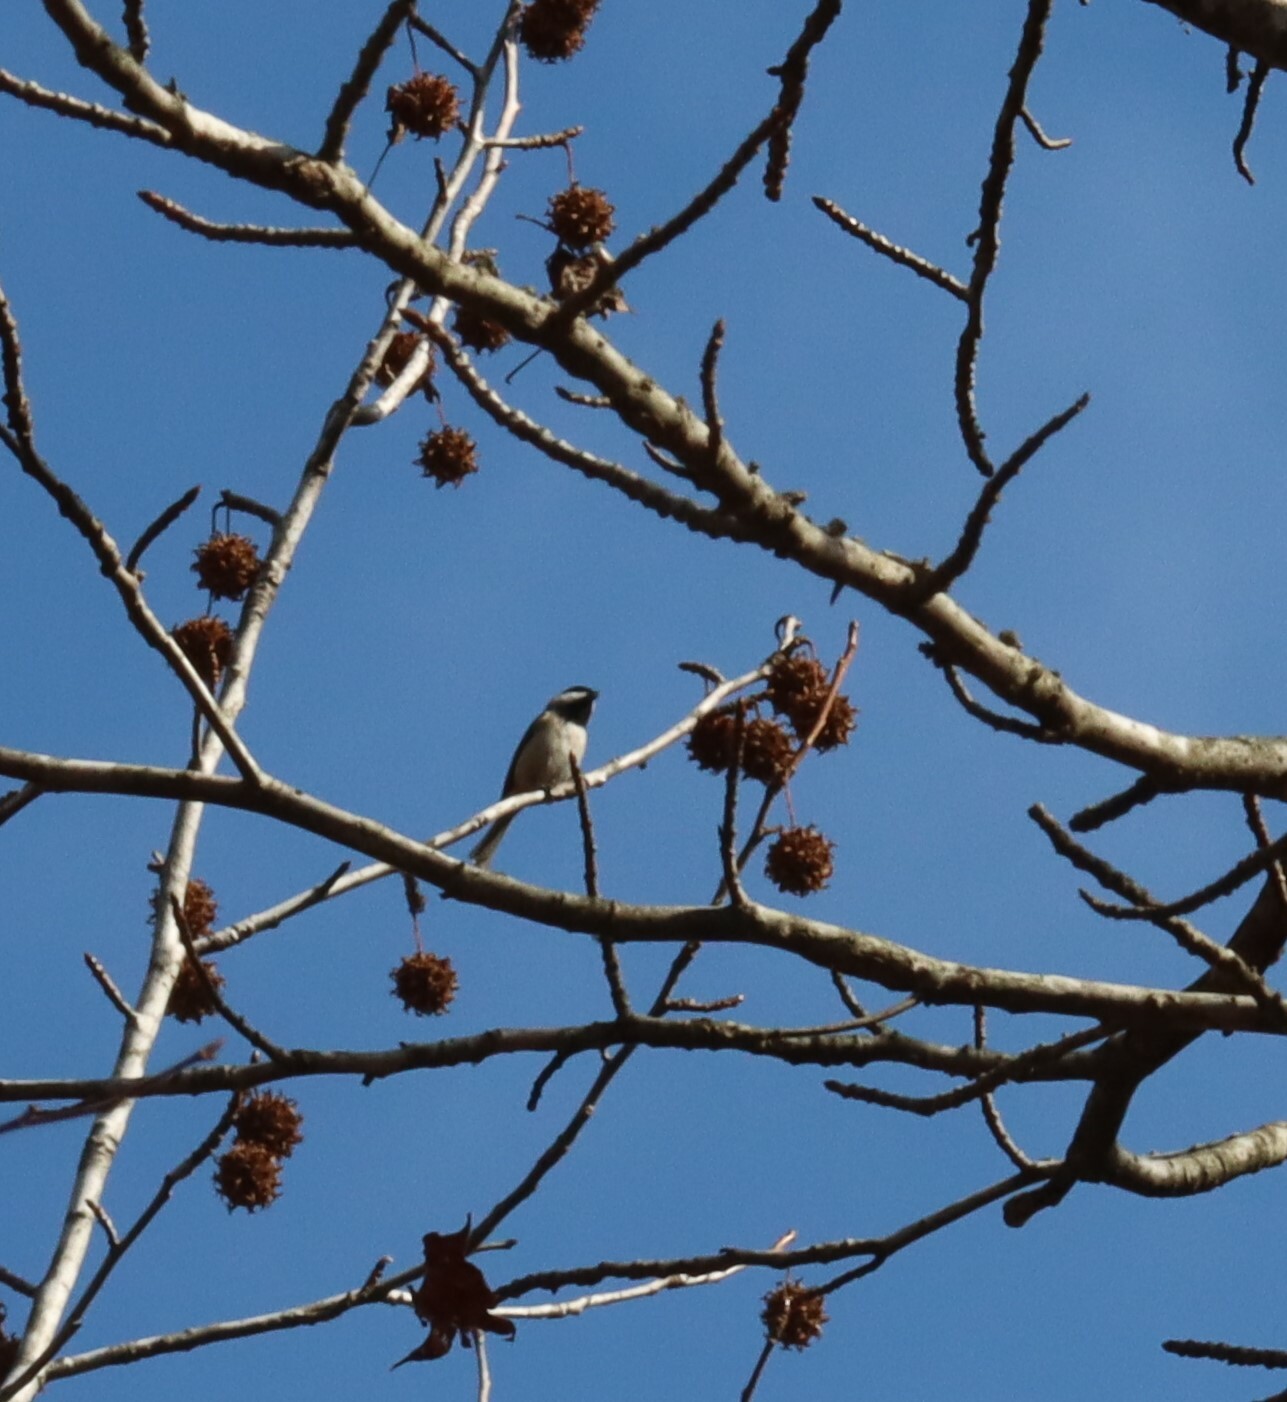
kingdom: Animalia
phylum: Chordata
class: Aves
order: Passeriformes
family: Paridae
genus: Poecile
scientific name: Poecile carolinensis
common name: Carolina chickadee
